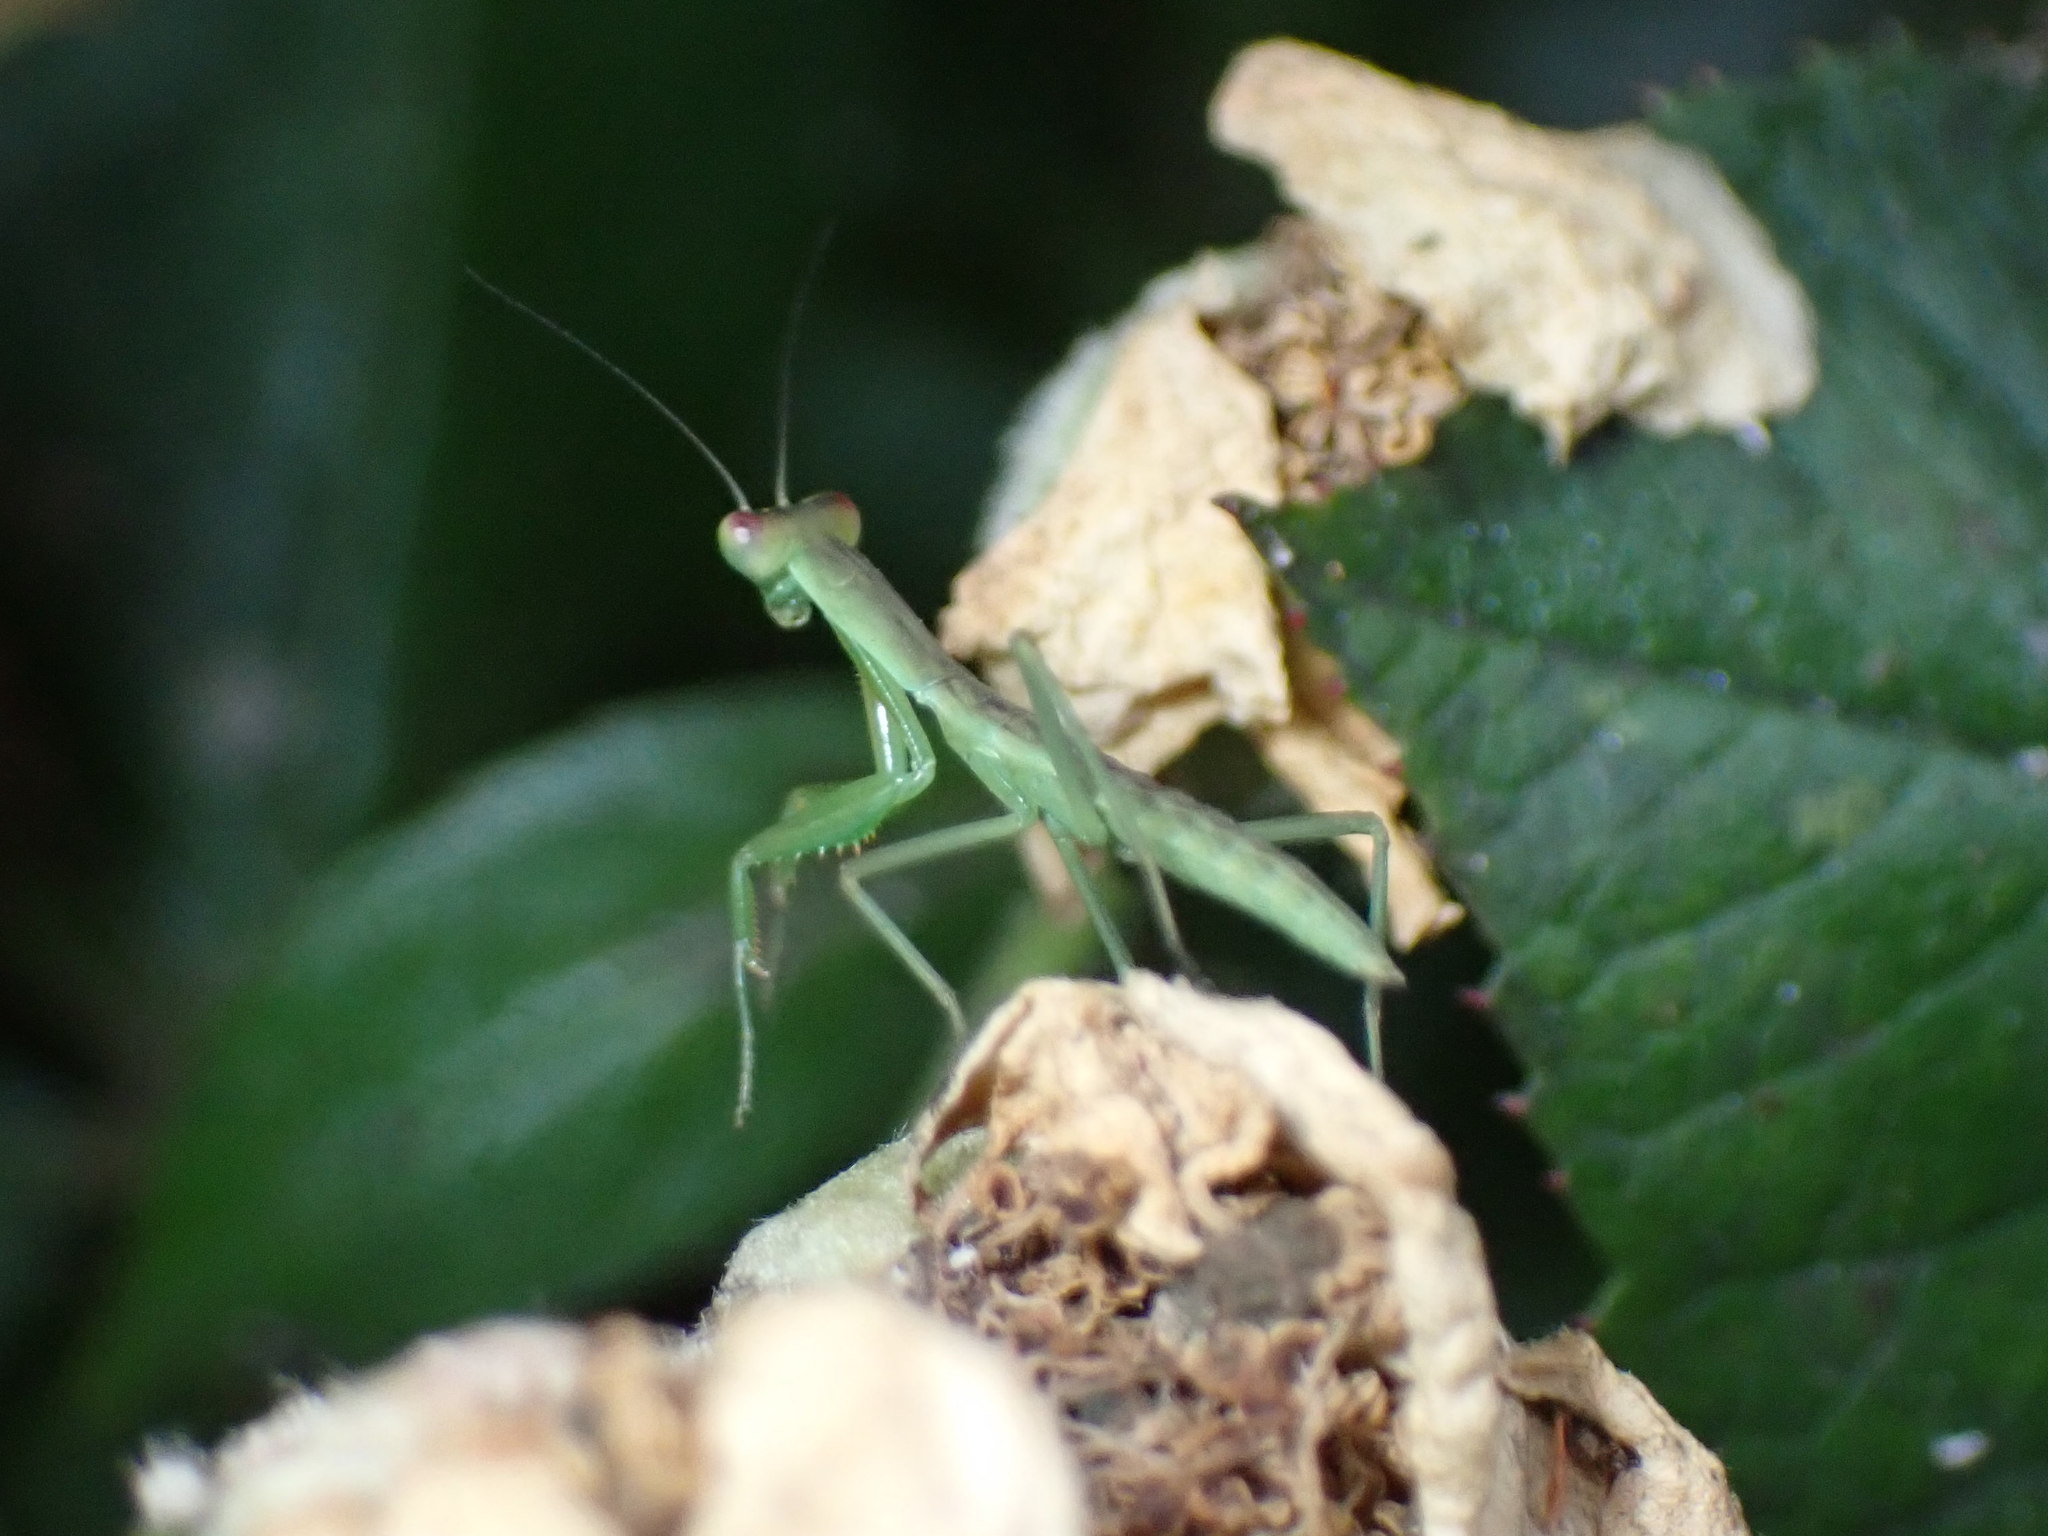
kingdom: Animalia
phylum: Arthropoda
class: Insecta
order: Mantodea
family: Mantidae
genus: Orthodera
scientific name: Orthodera novaezealandiae
